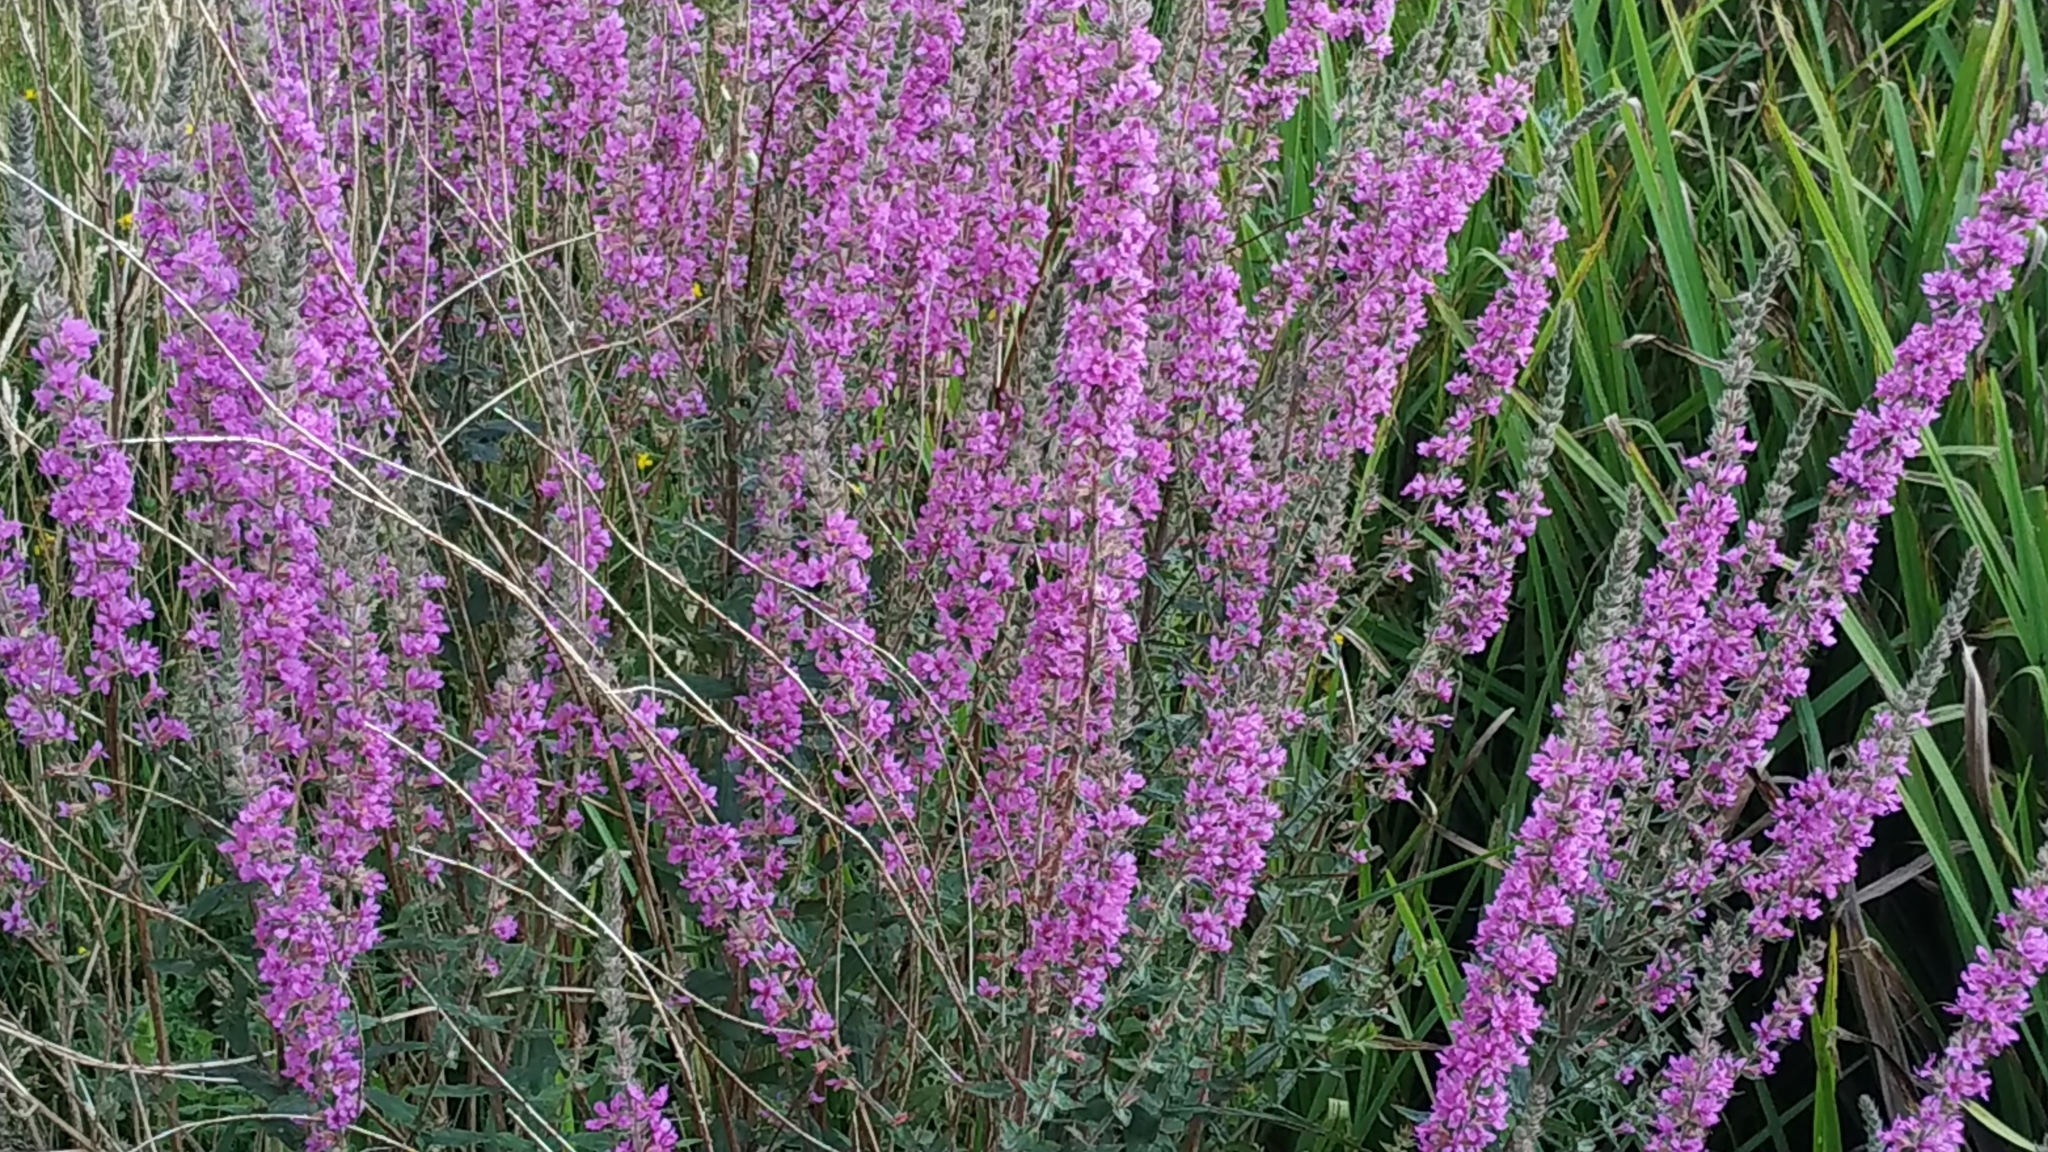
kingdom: Plantae
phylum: Tracheophyta
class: Magnoliopsida
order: Myrtales
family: Lythraceae
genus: Lythrum
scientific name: Lythrum salicaria
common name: Purple loosestrife
